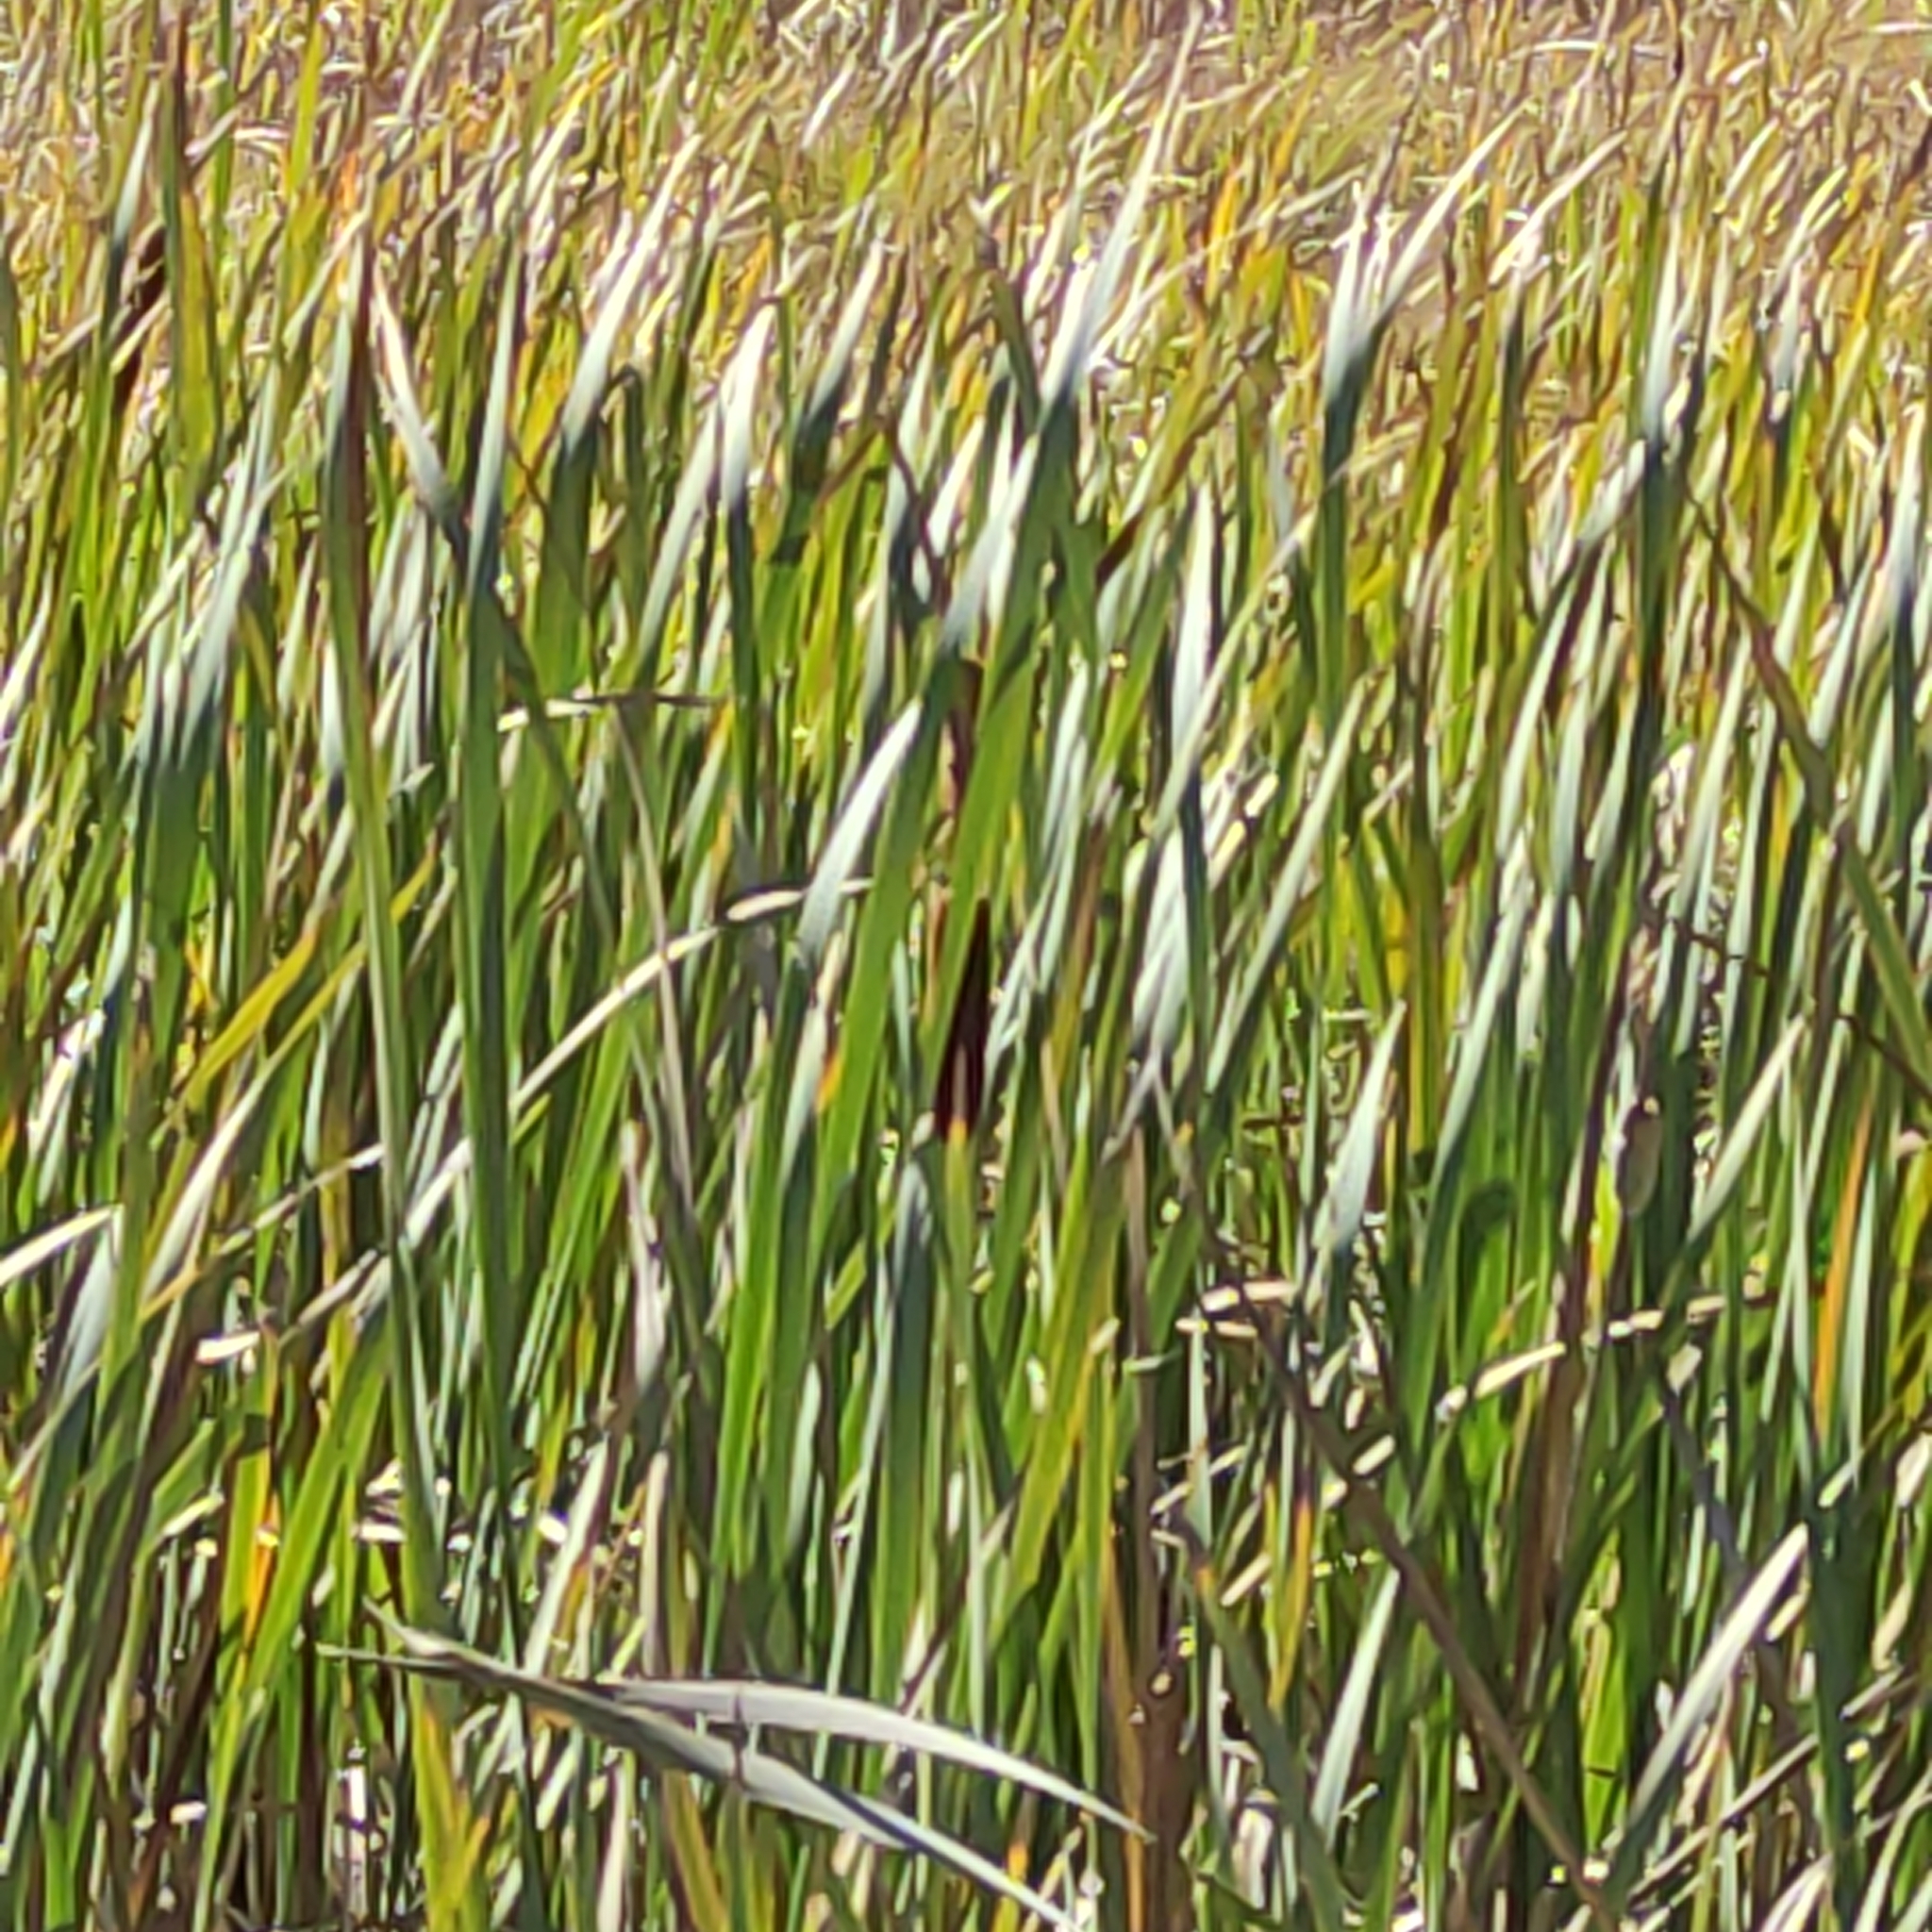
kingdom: Plantae
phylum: Tracheophyta
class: Liliopsida
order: Poales
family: Typhaceae
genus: Typha
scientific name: Typha orientalis
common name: Bullrush
